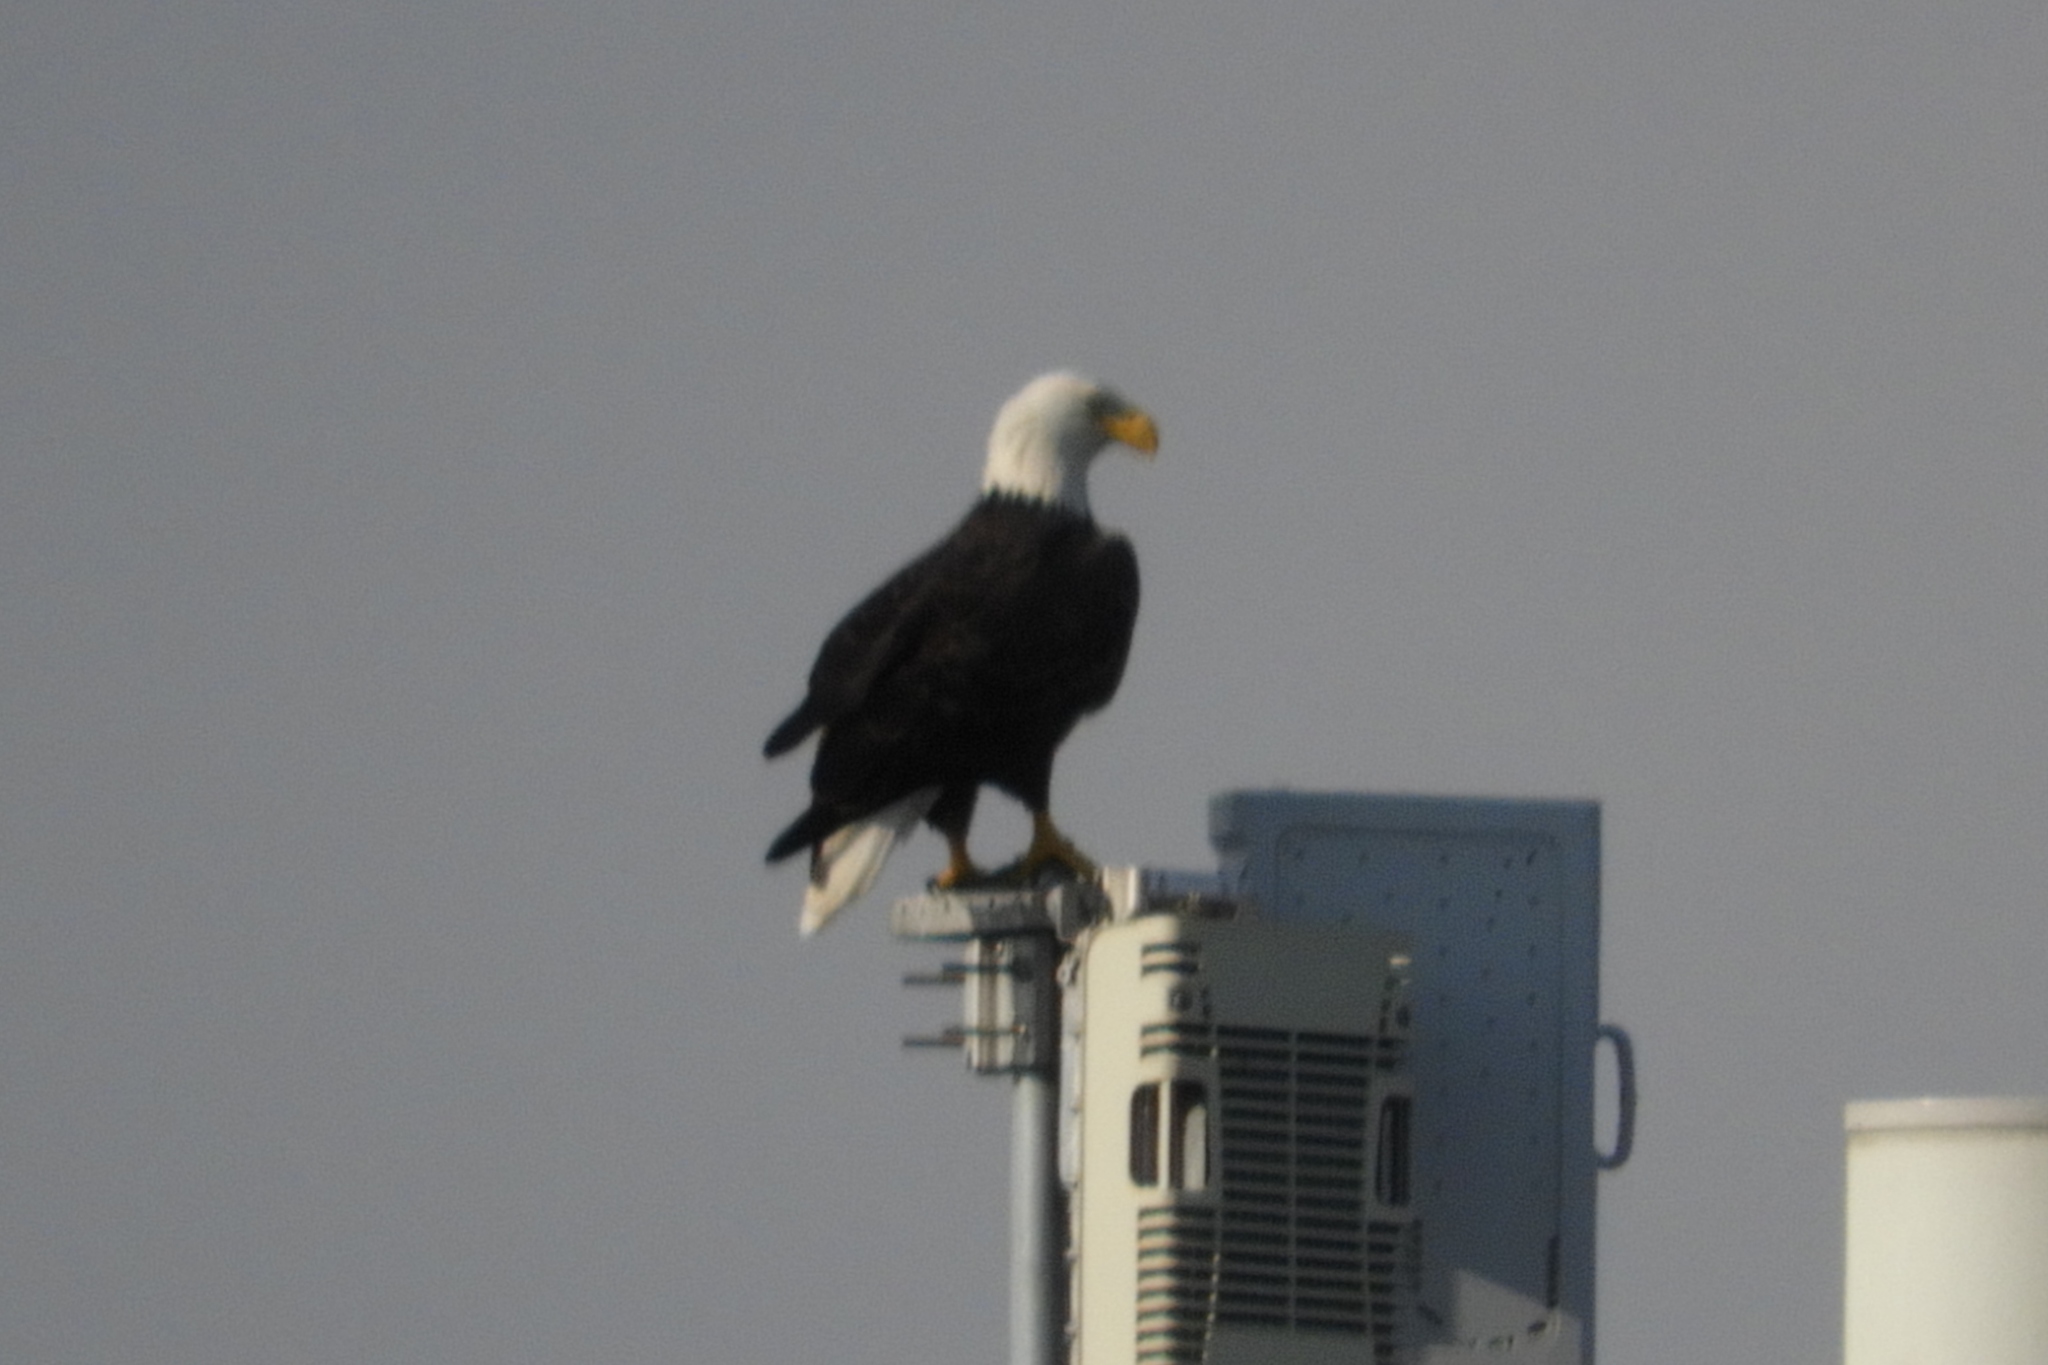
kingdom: Animalia
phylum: Chordata
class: Aves
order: Accipitriformes
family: Accipitridae
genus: Haliaeetus
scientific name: Haliaeetus leucocephalus
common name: Bald eagle
